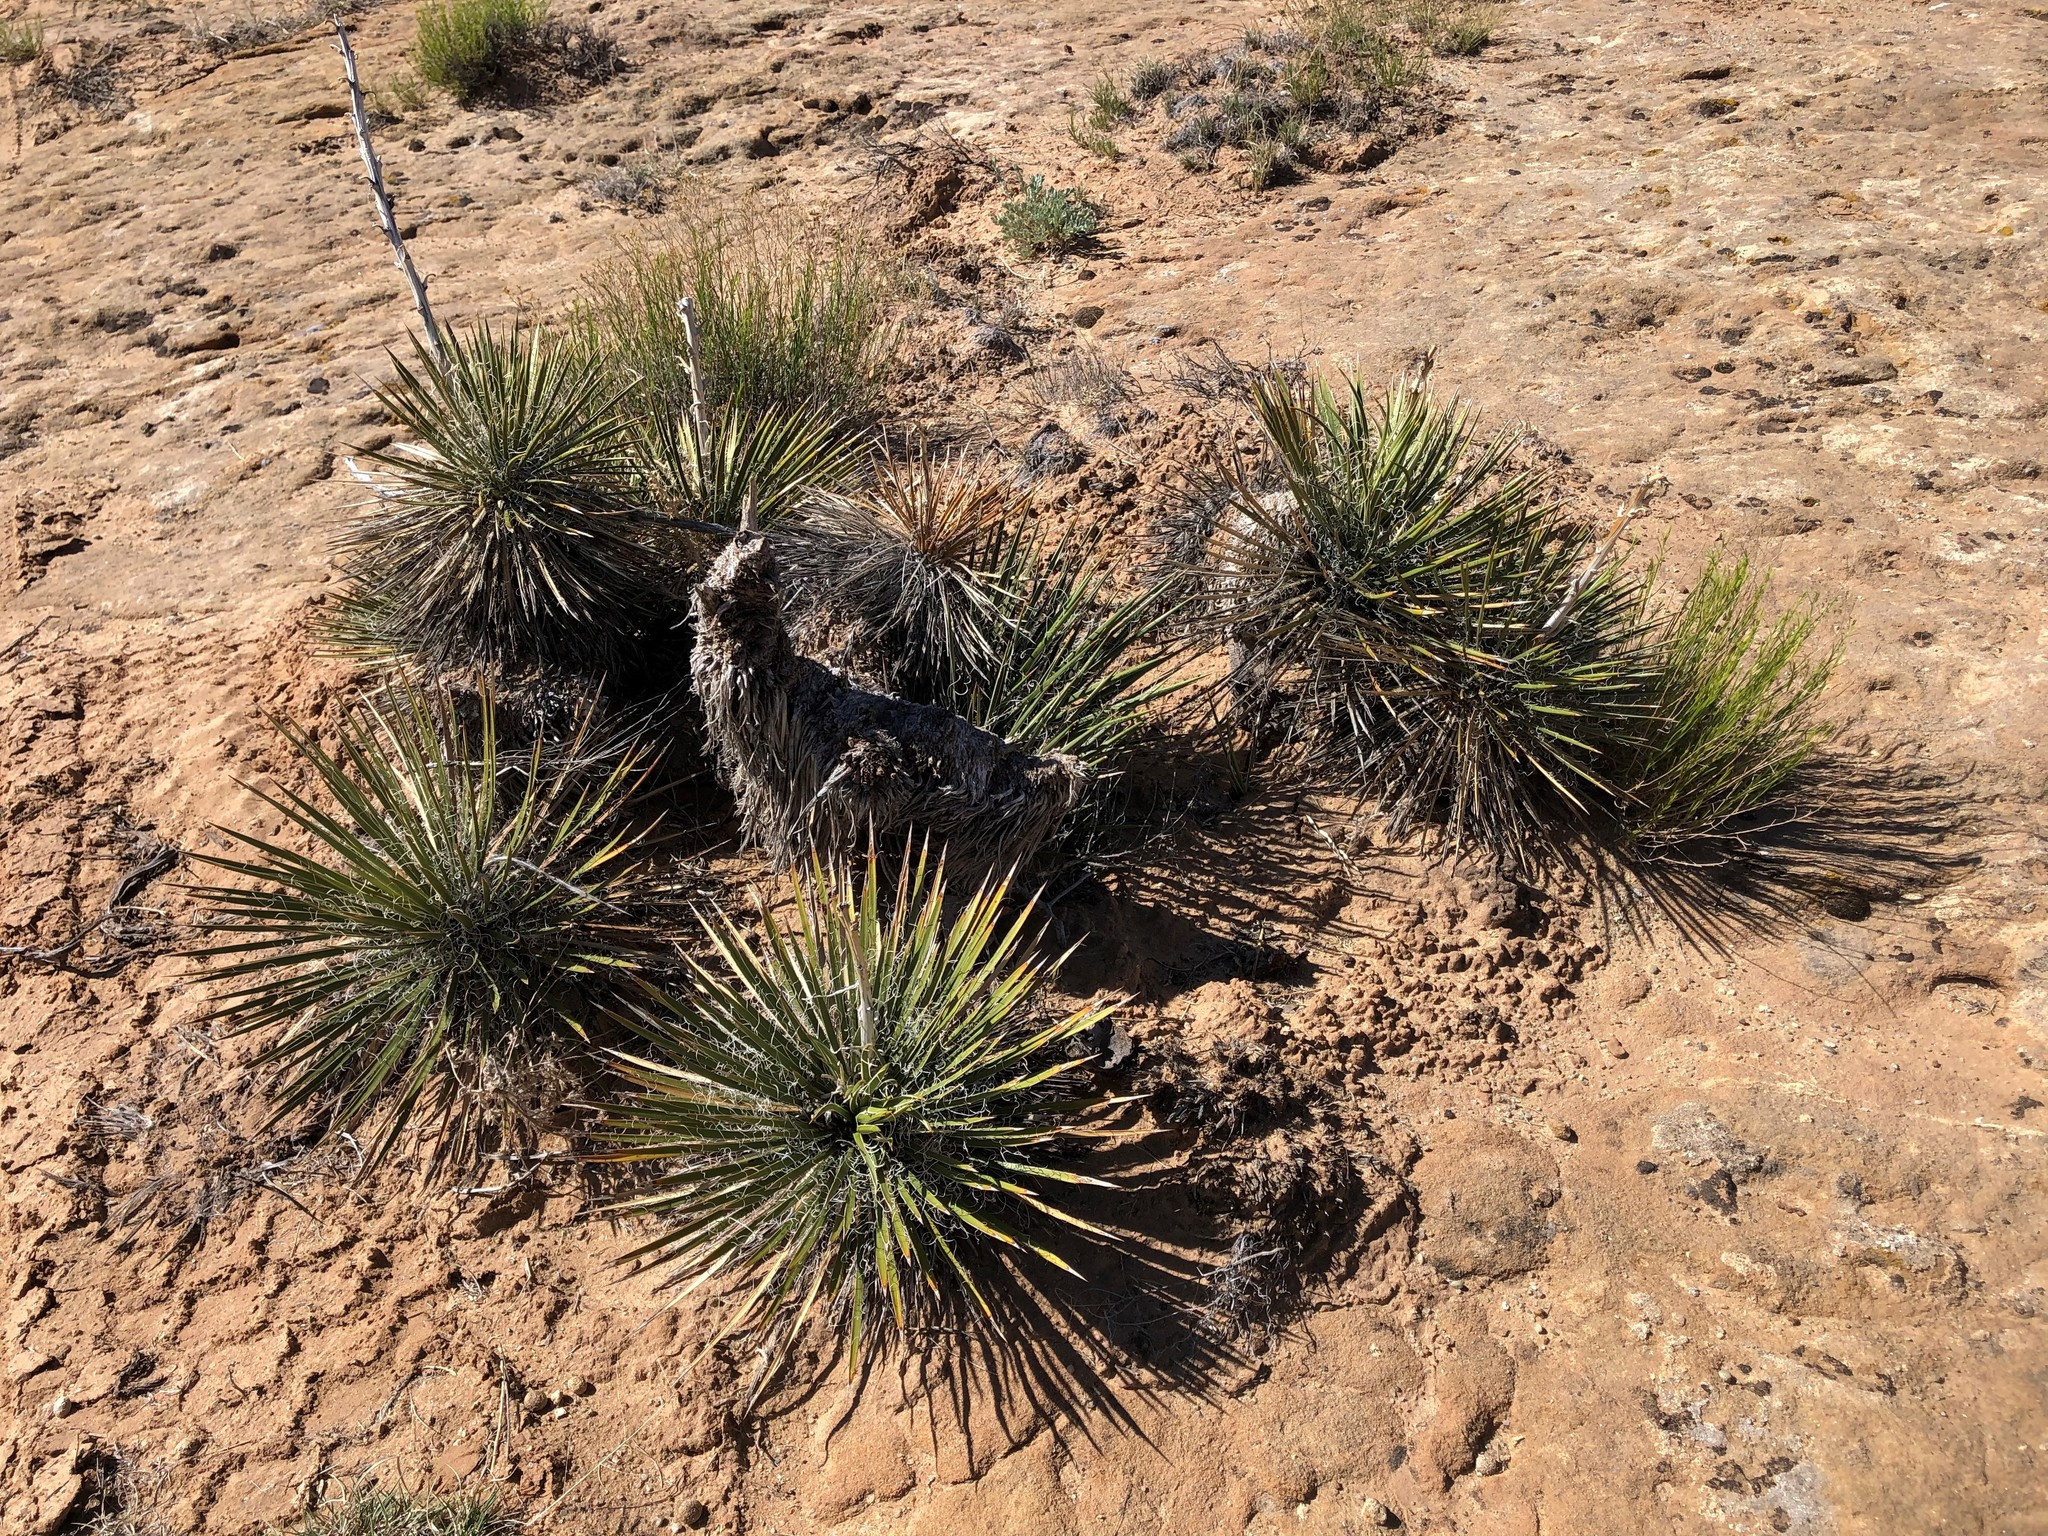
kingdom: Plantae
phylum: Tracheophyta
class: Liliopsida
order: Asparagales
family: Asparagaceae
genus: Yucca
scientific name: Yucca baileyi
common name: Alpine yucca
